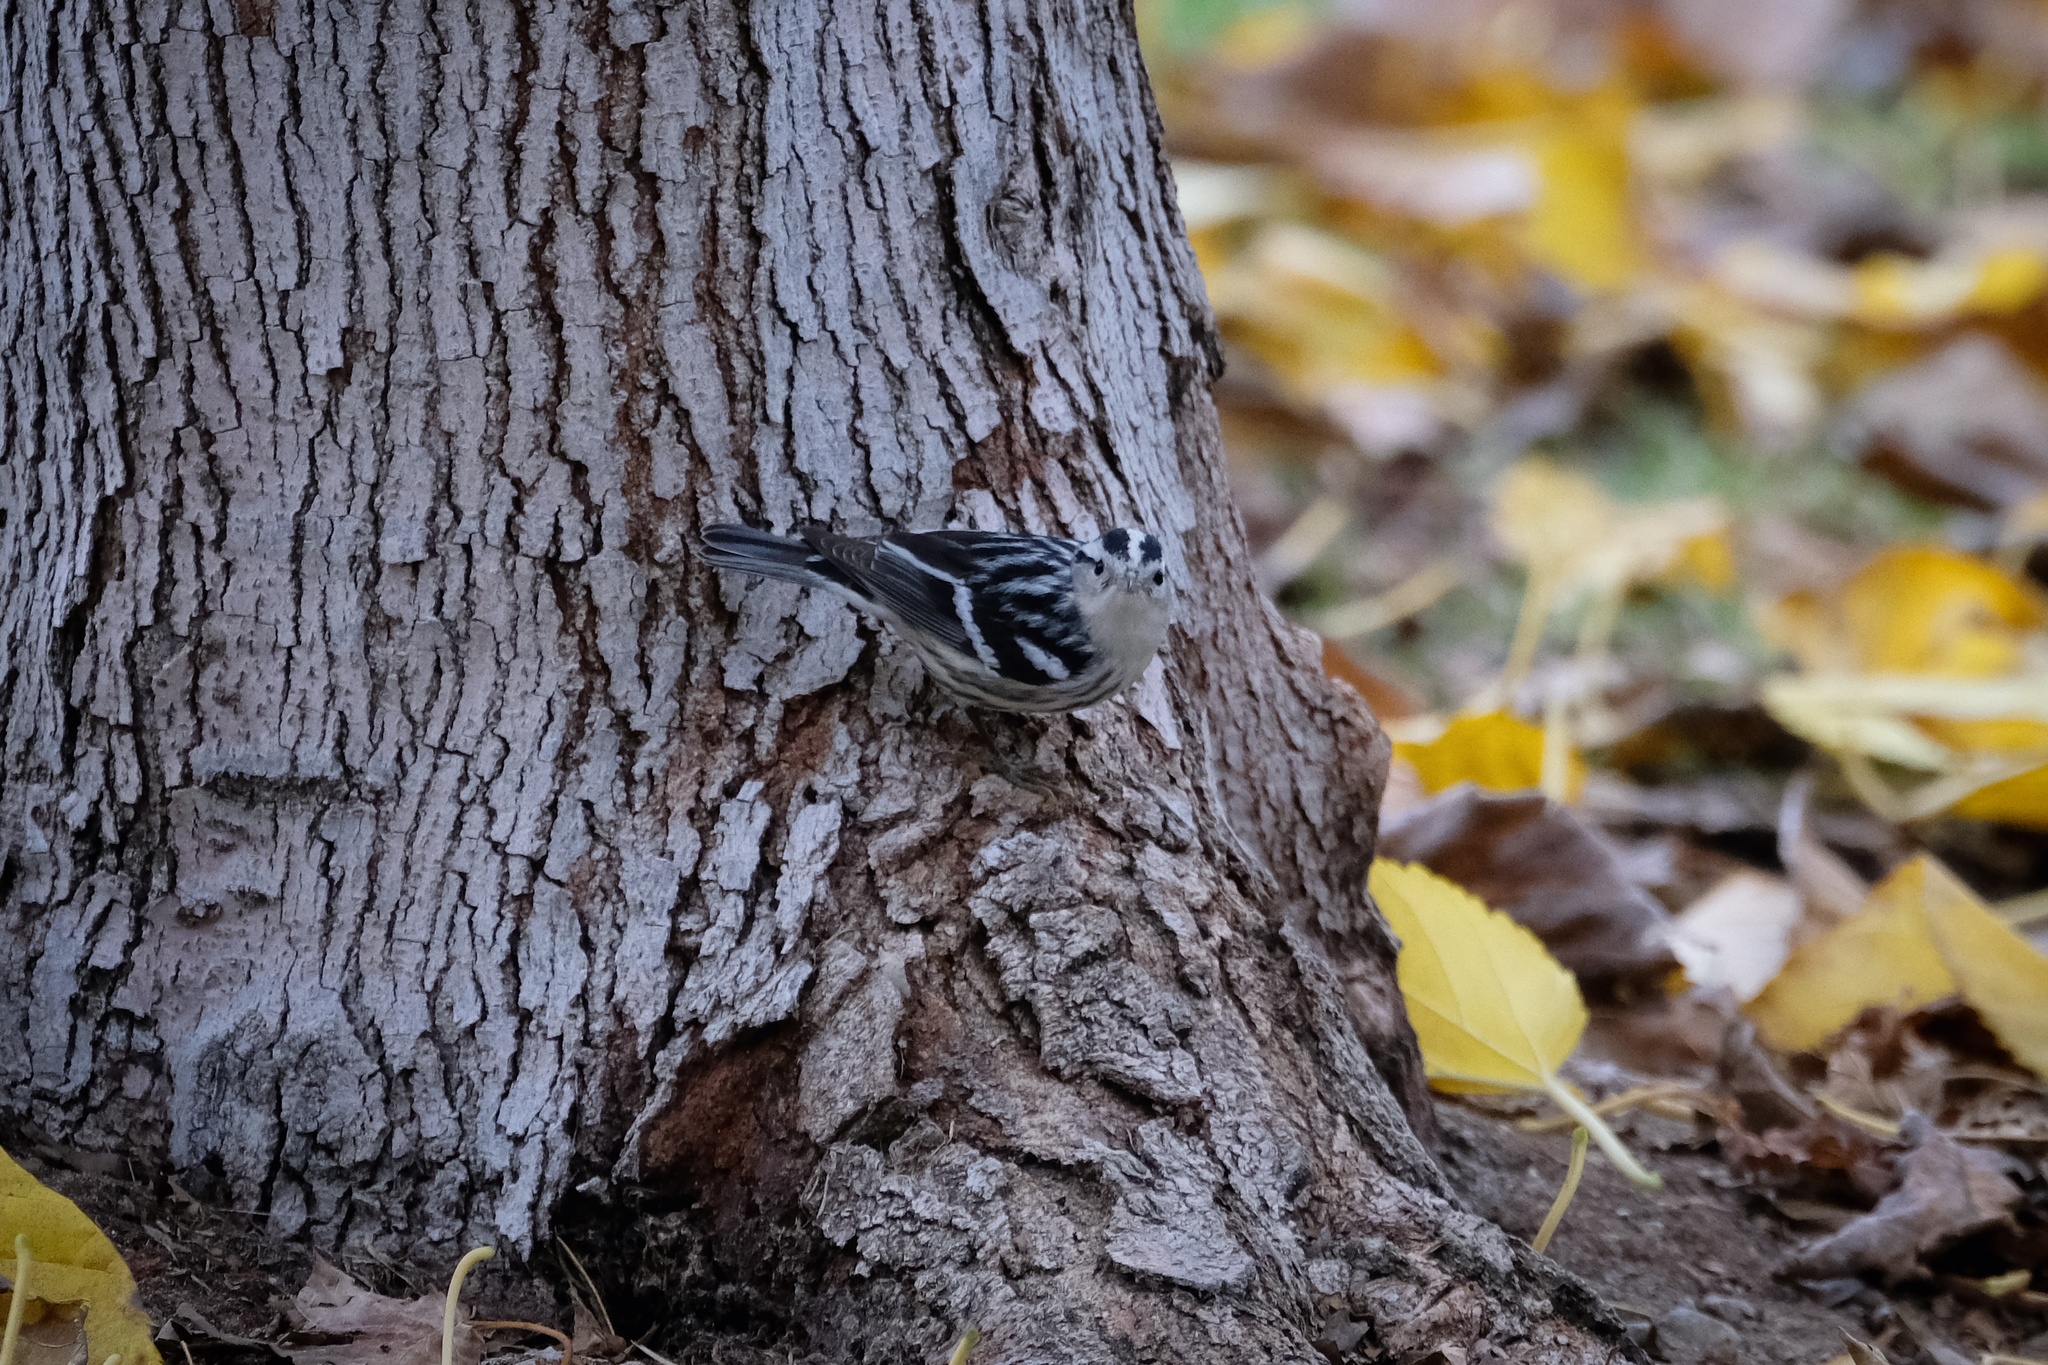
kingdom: Animalia
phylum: Chordata
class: Aves
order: Passeriformes
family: Parulidae
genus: Mniotilta
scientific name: Mniotilta varia
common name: Black-and-white warbler
